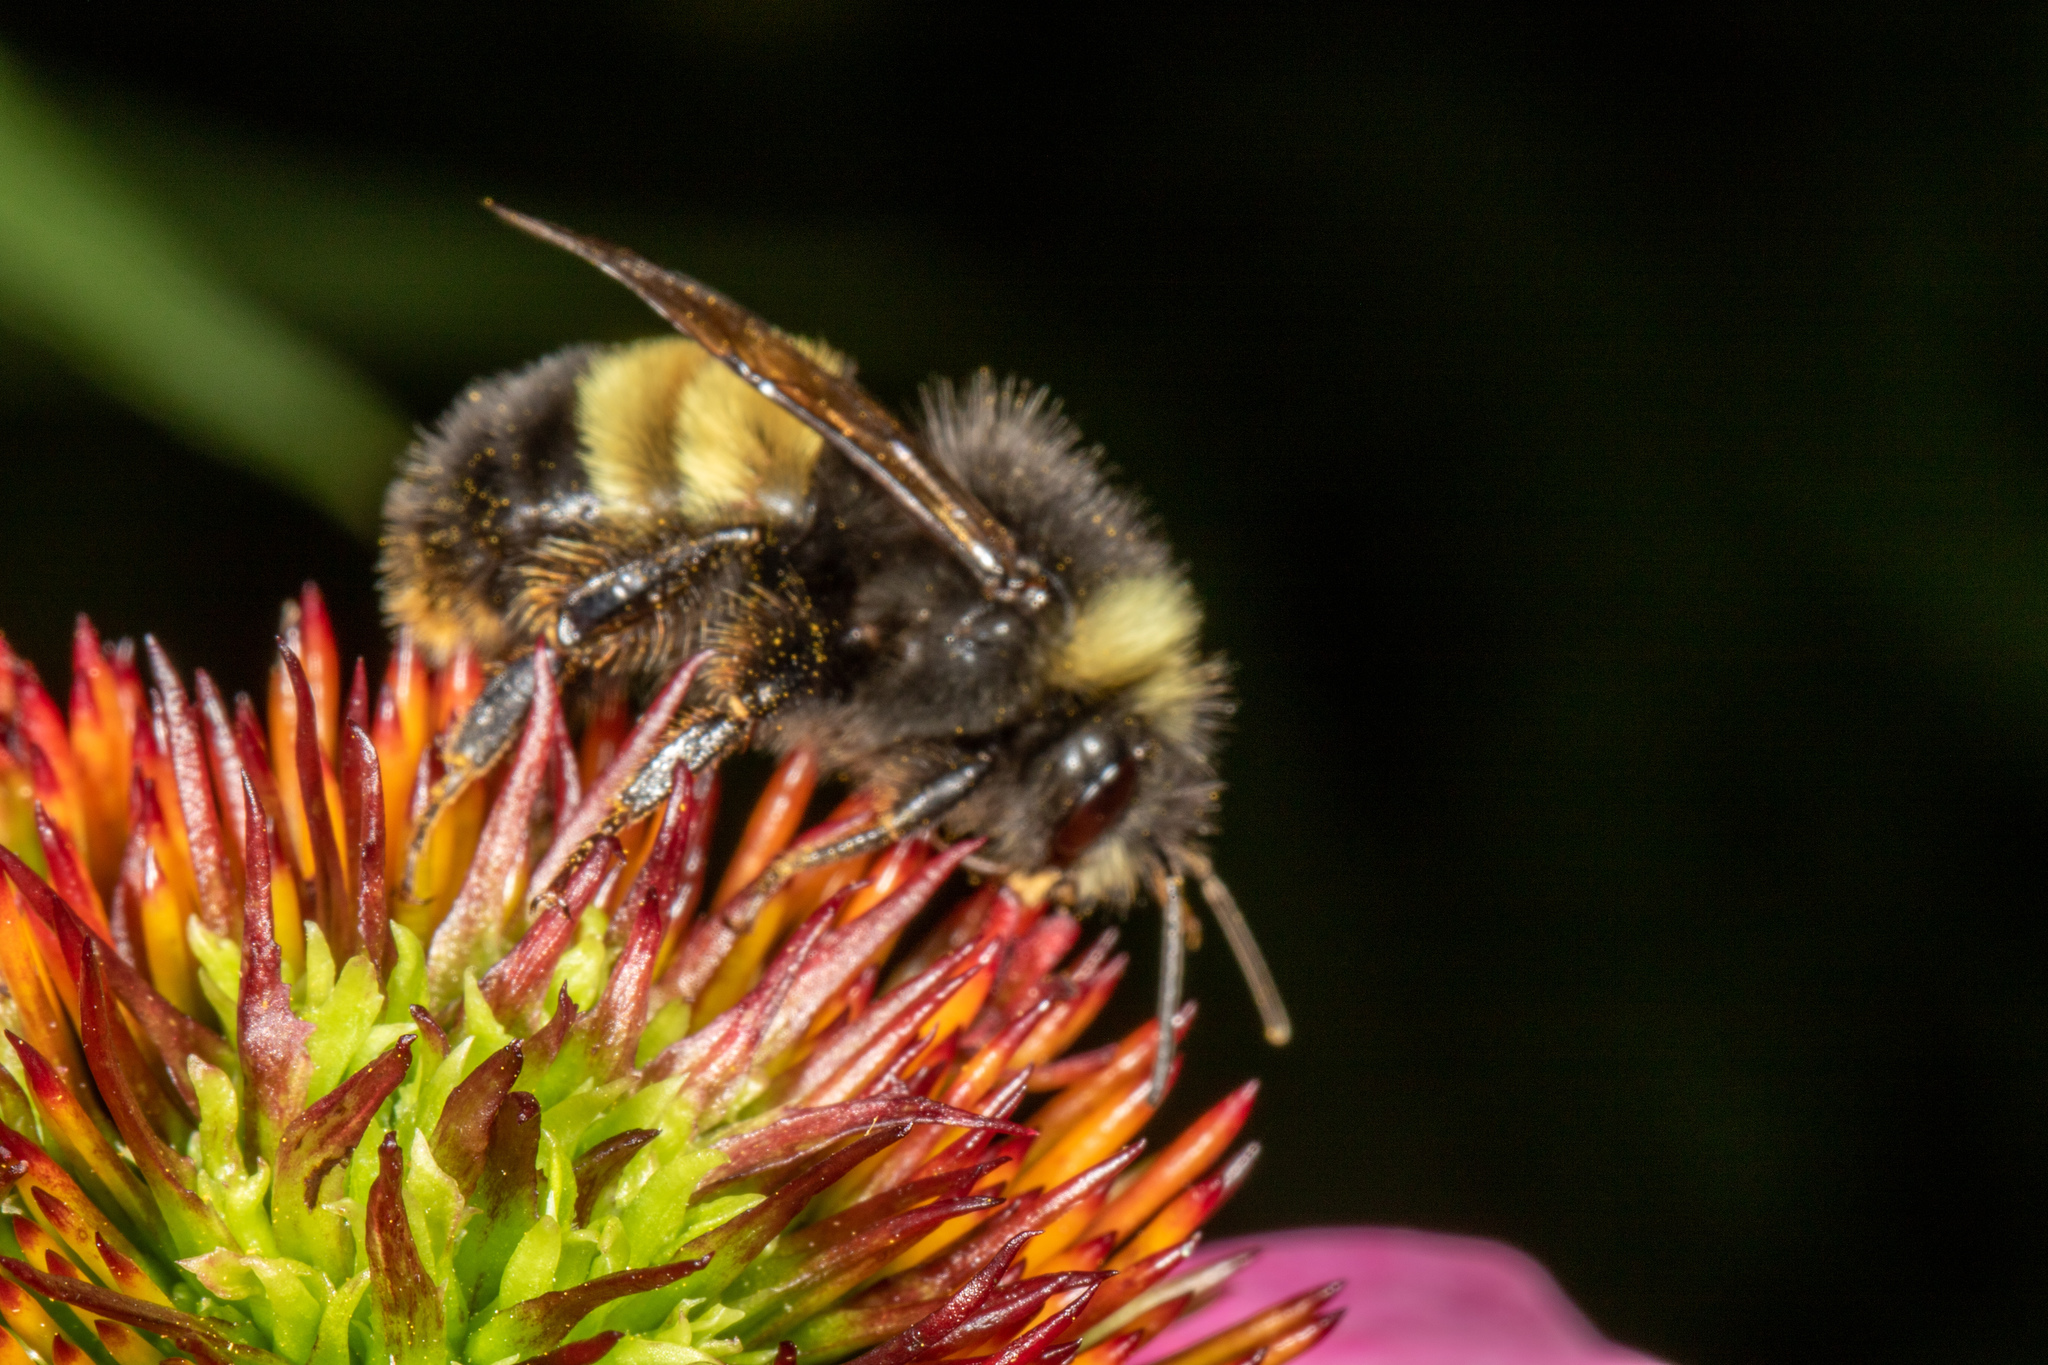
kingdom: Animalia
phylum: Arthropoda
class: Insecta
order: Hymenoptera
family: Apidae
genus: Bombus
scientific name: Bombus terricola
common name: Yellow-banded bumble bee
